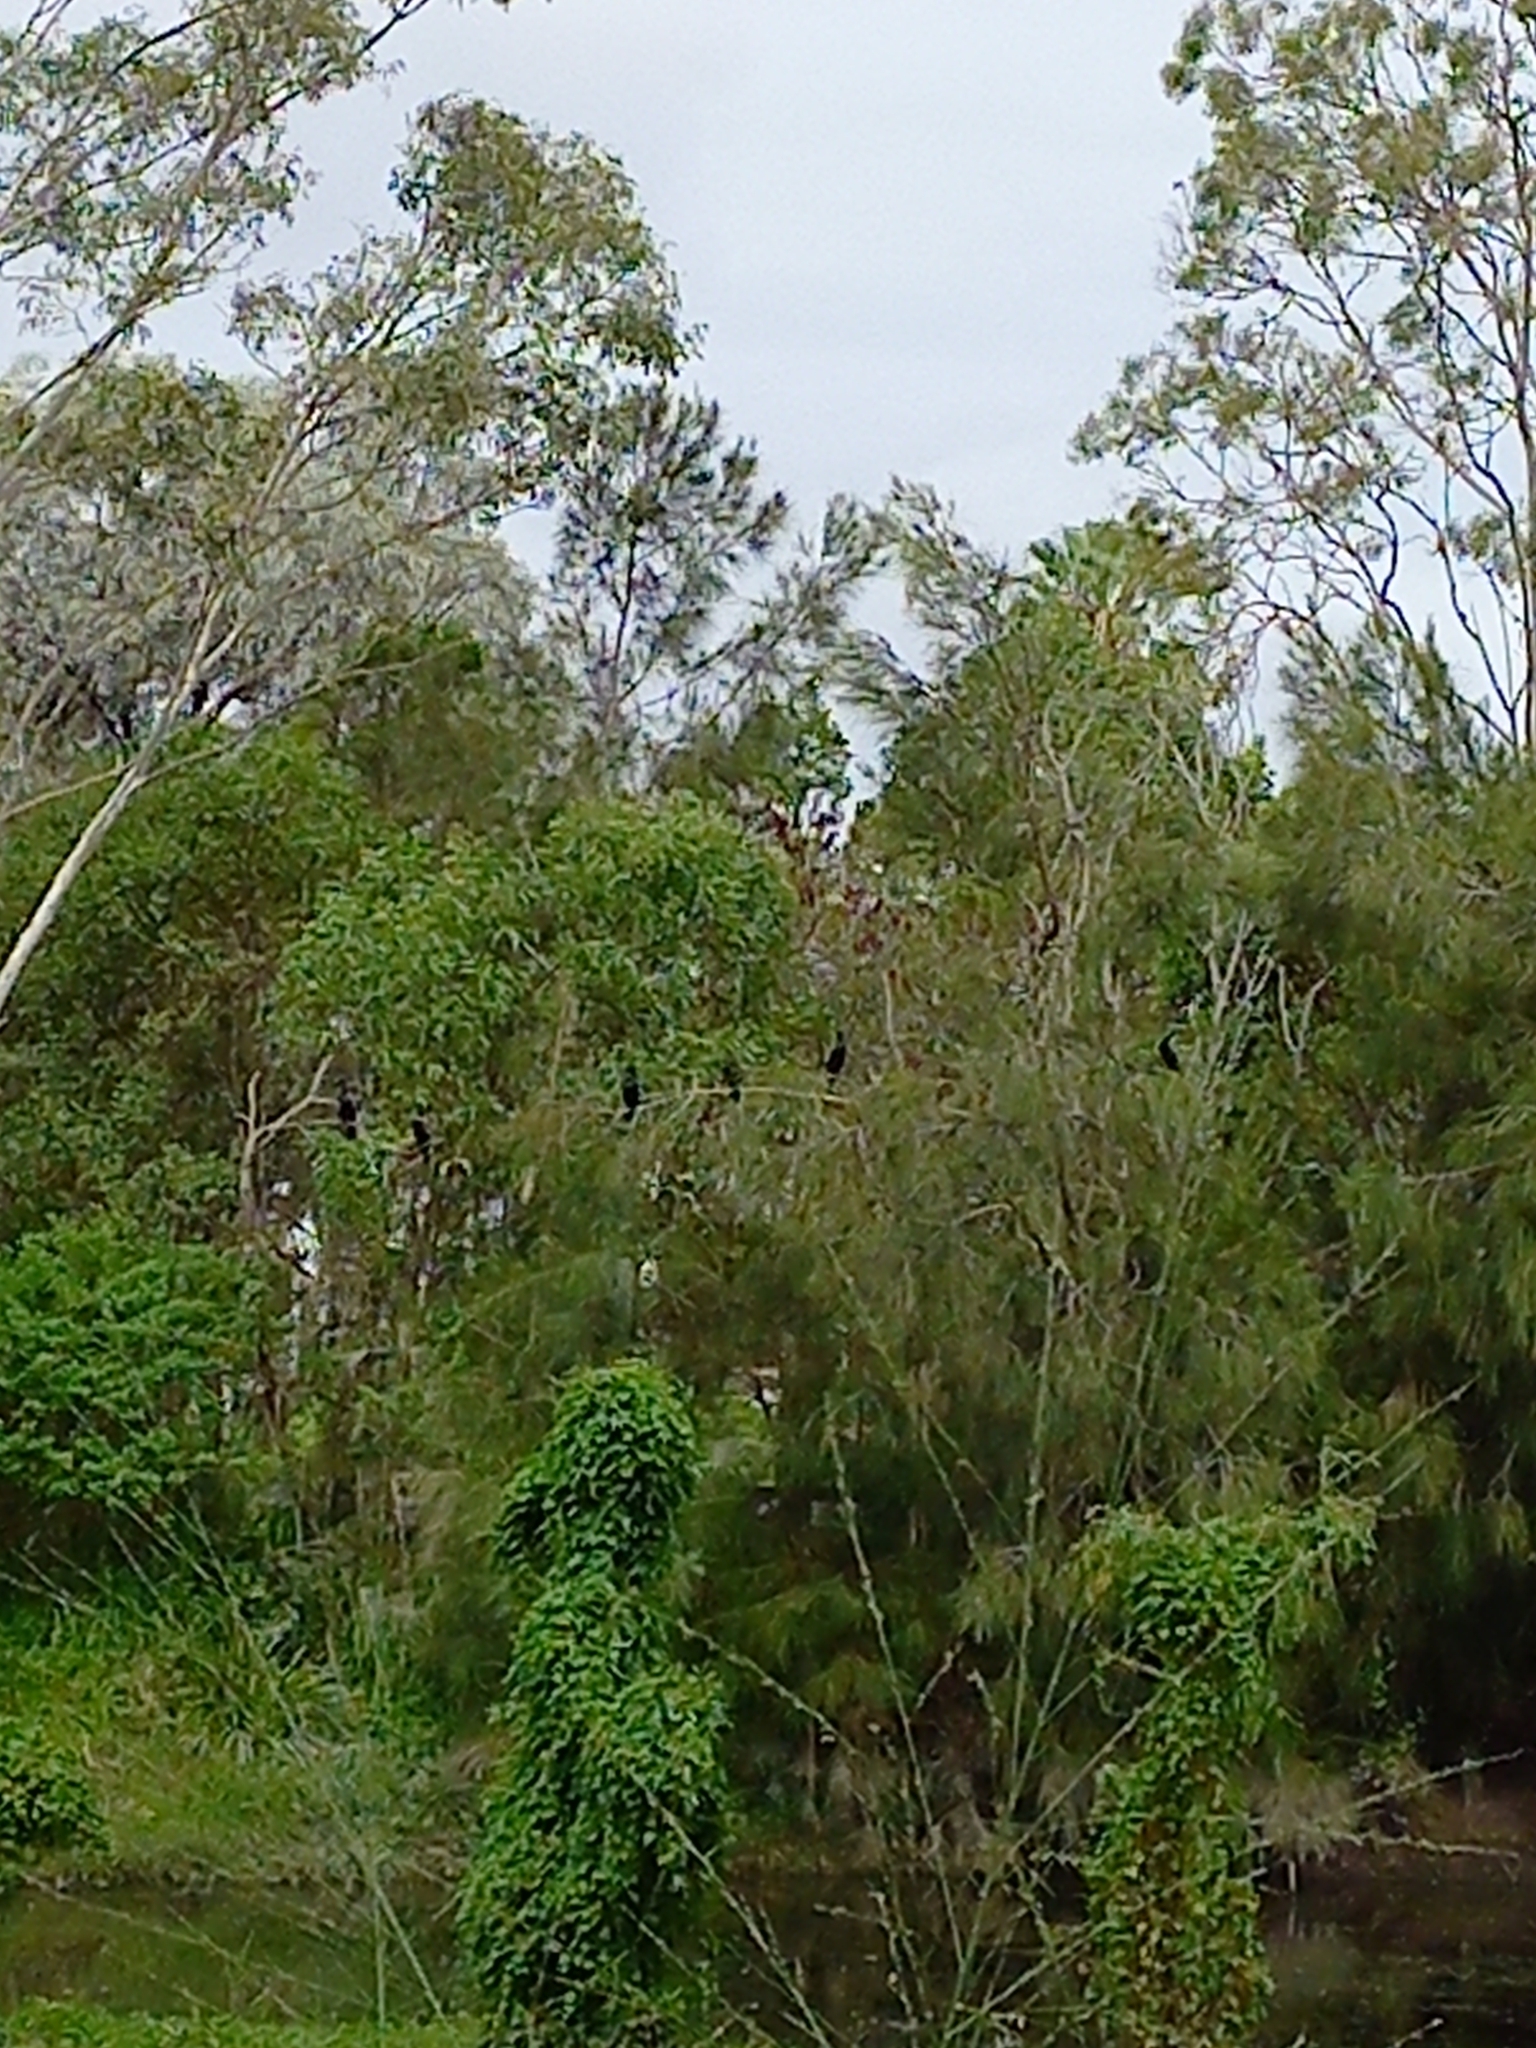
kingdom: Animalia
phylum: Chordata
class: Aves
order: Suliformes
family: Phalacrocoracidae
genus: Phalacrocorax
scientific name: Phalacrocorax sulcirostris
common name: Little black cormorant
